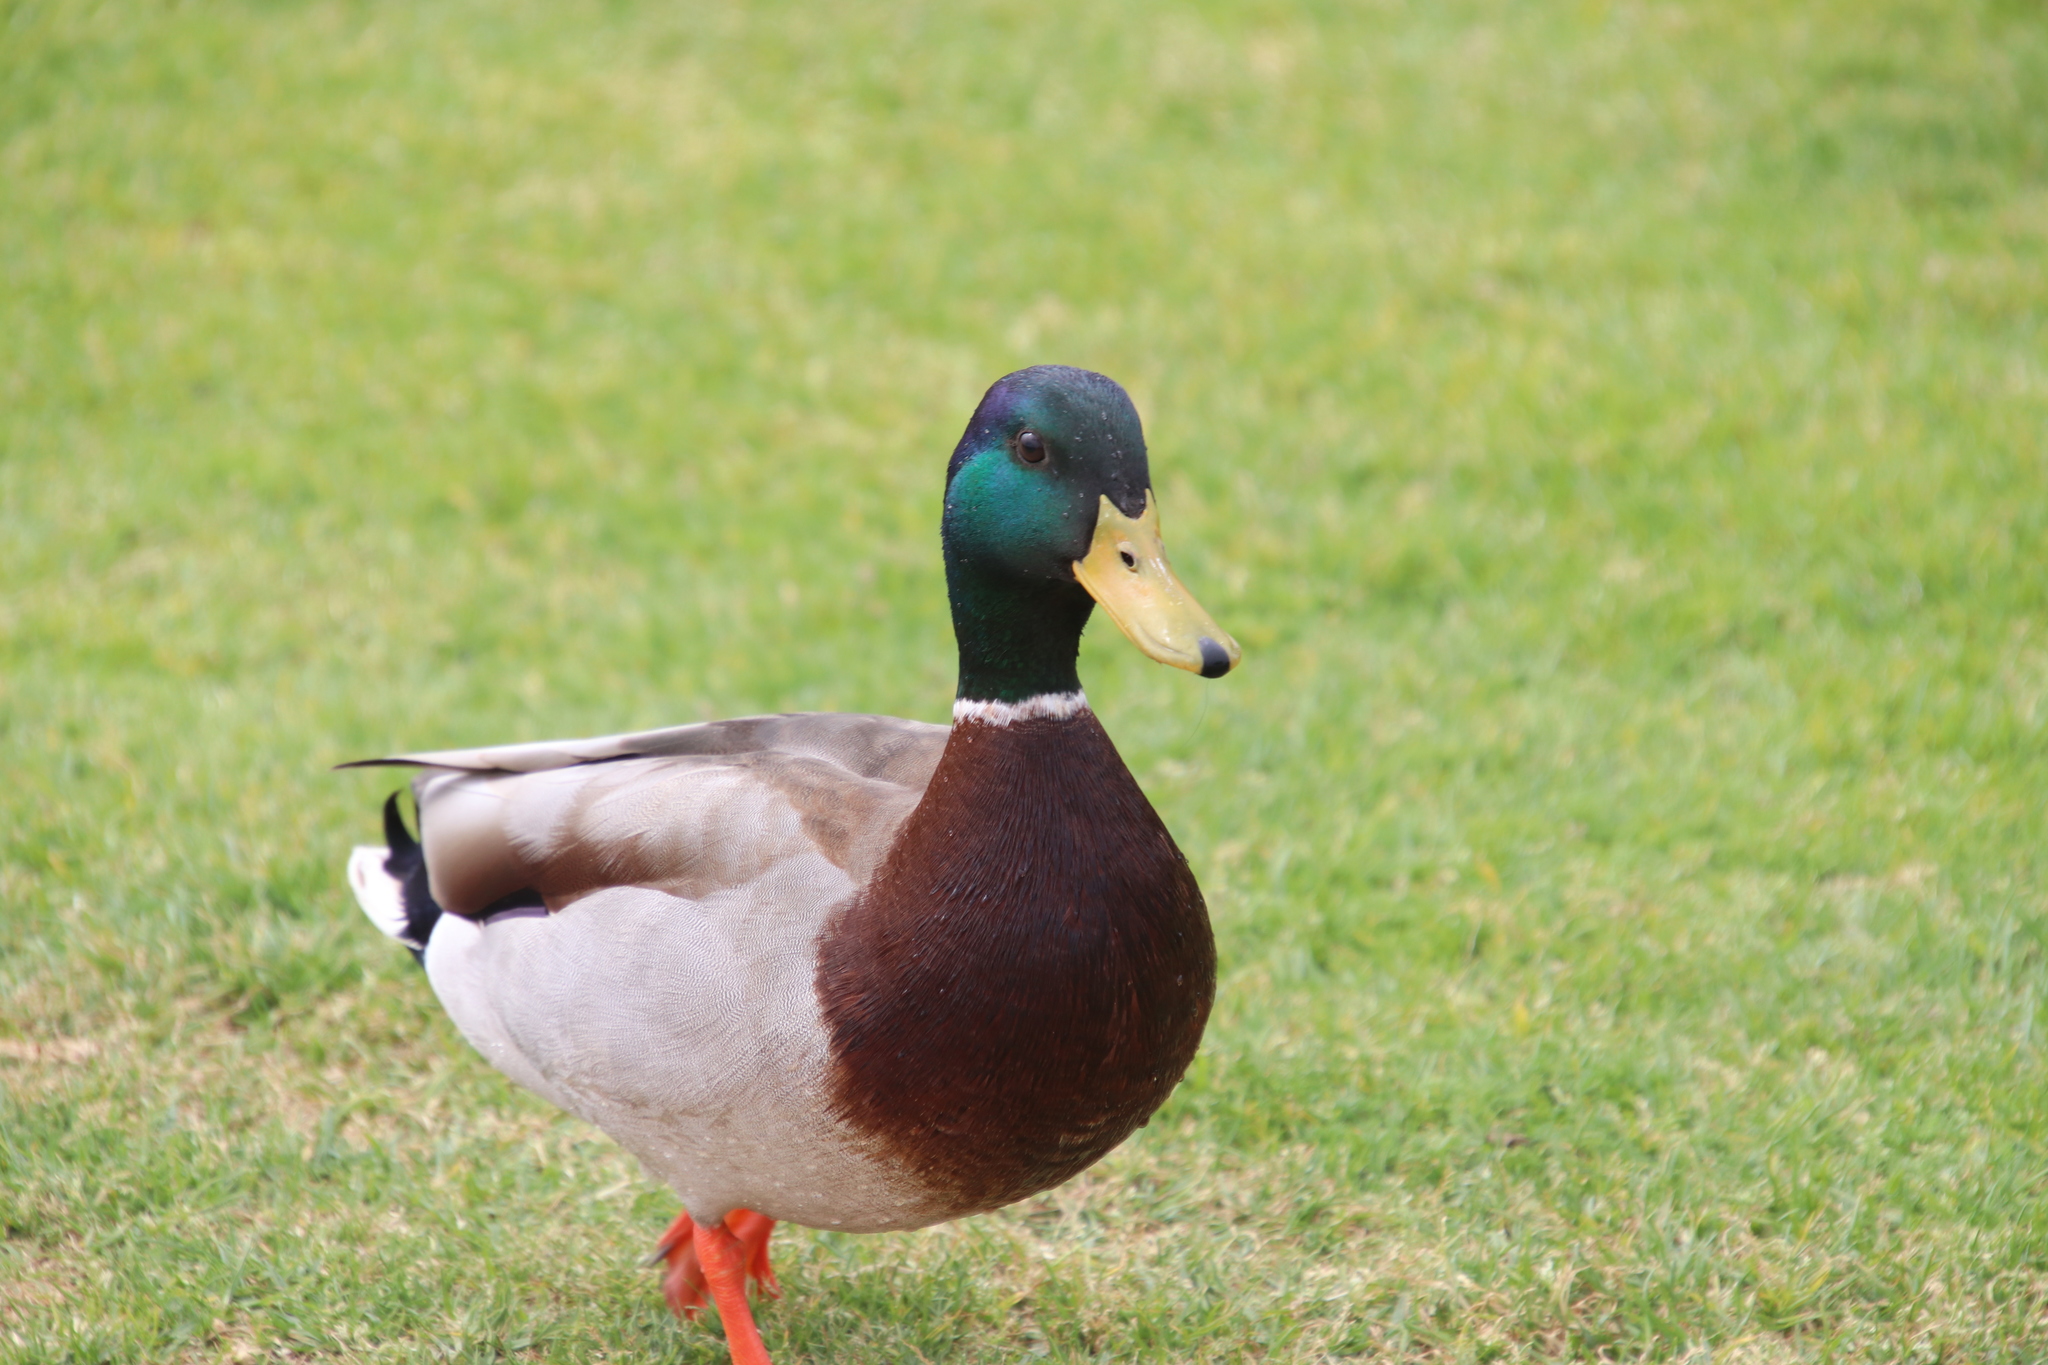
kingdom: Animalia
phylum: Chordata
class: Aves
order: Anseriformes
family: Anatidae
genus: Anas
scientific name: Anas platyrhynchos
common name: Mallard
